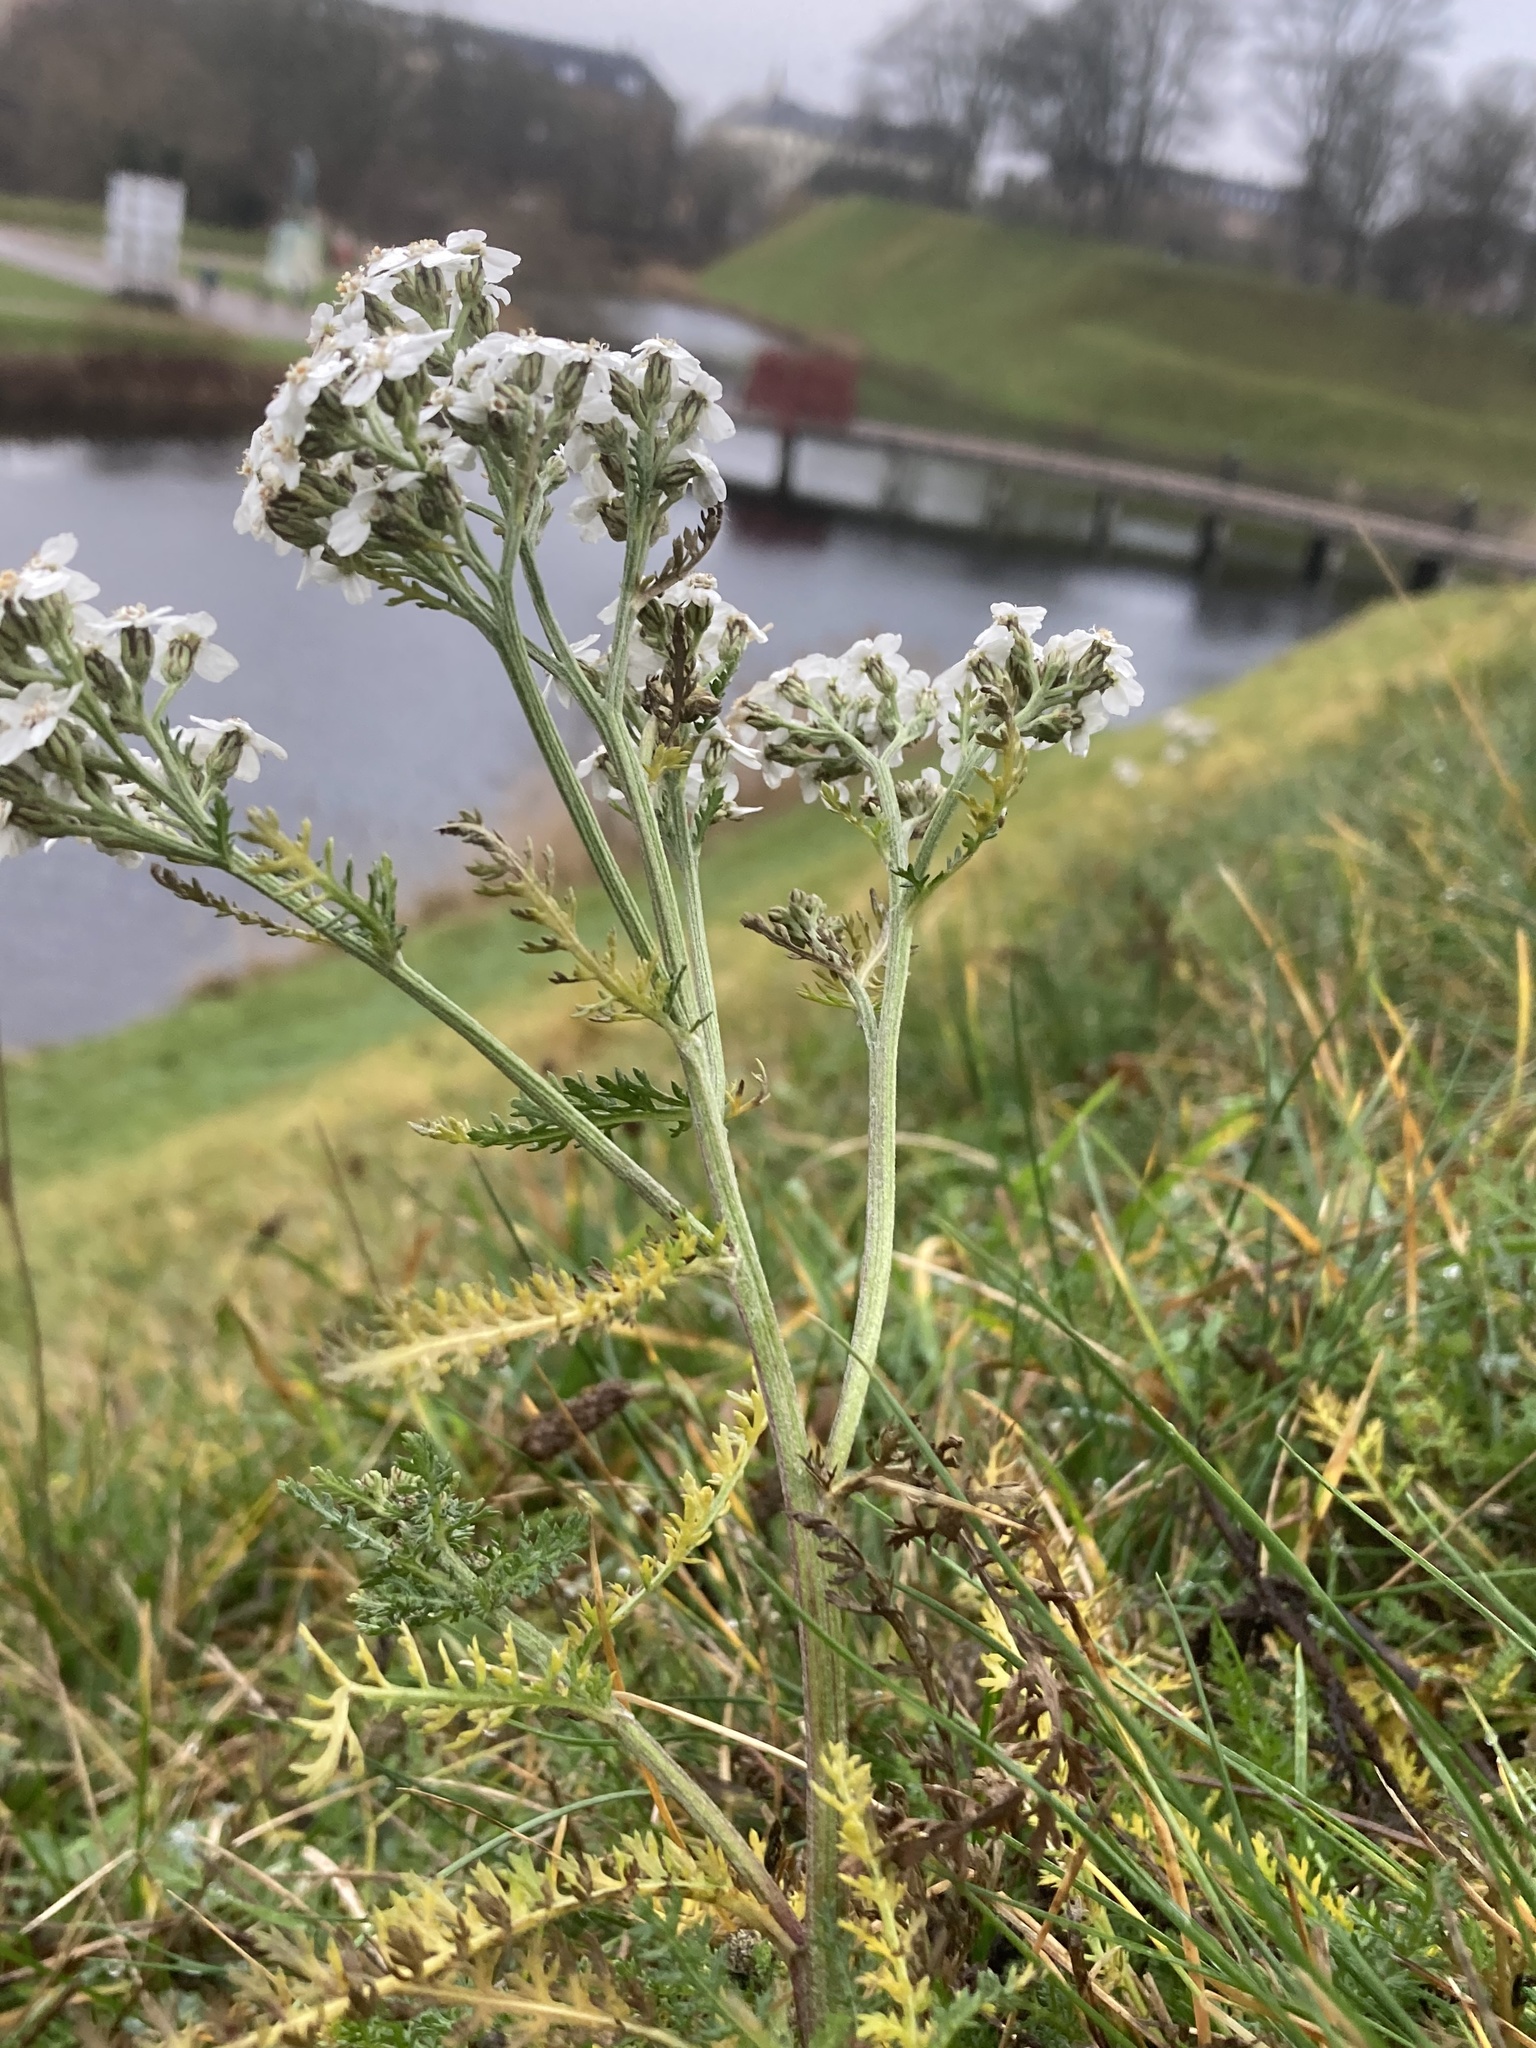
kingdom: Plantae
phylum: Tracheophyta
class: Magnoliopsida
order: Asterales
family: Asteraceae
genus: Achillea
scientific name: Achillea millefolium
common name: Yarrow
